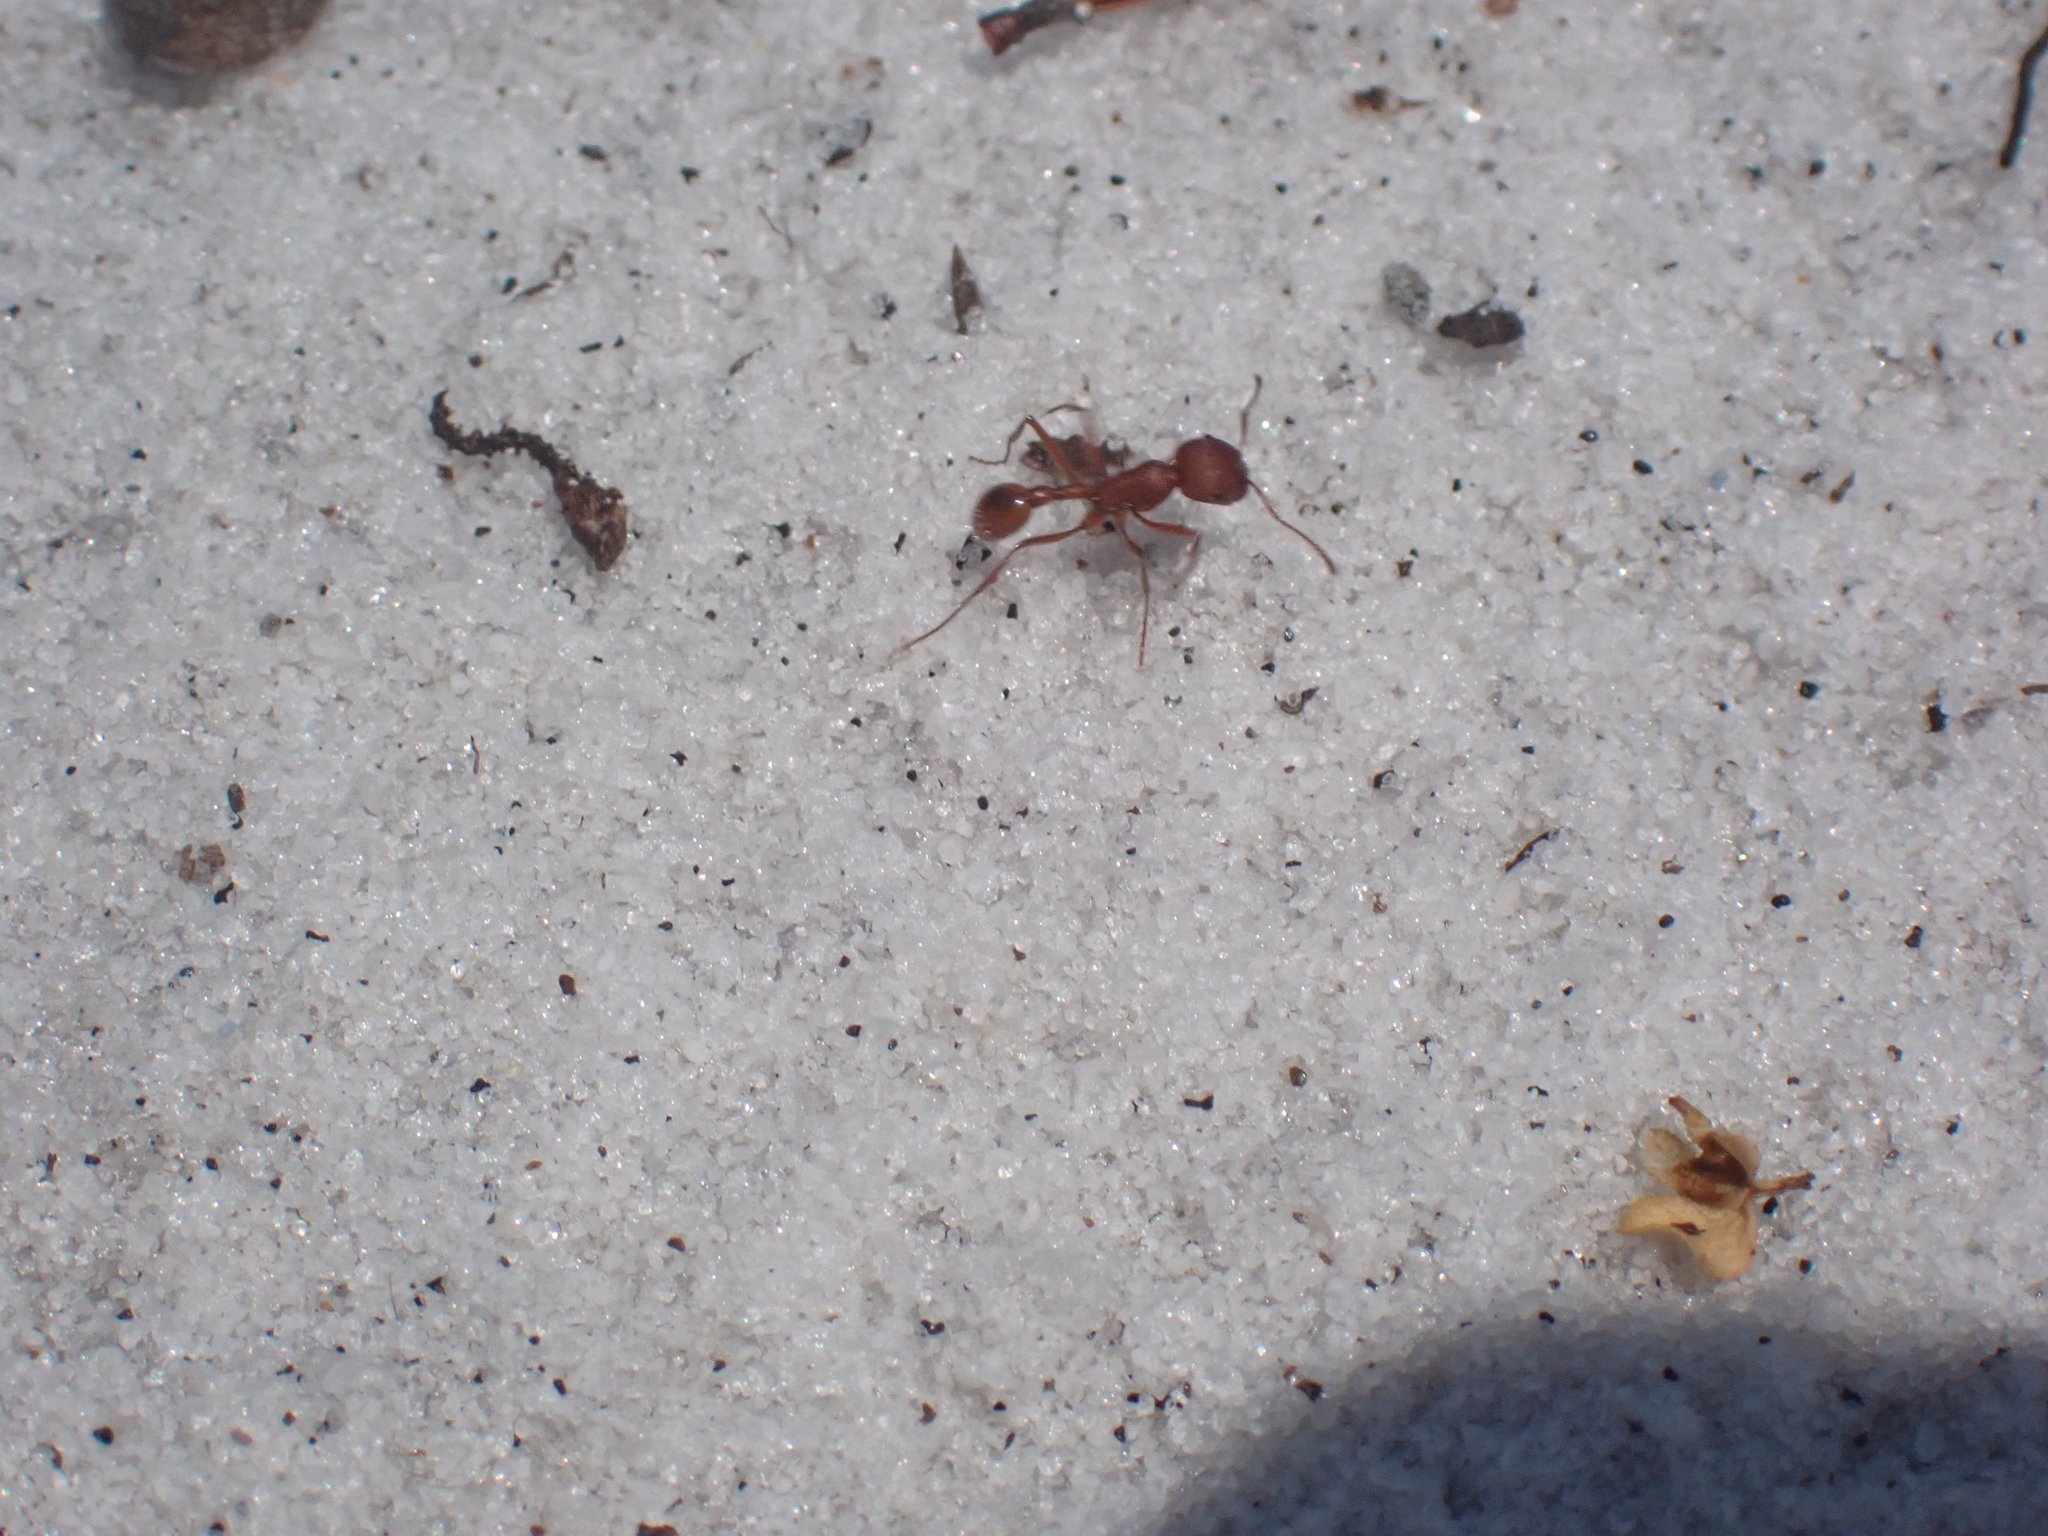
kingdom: Animalia
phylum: Arthropoda
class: Insecta
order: Hymenoptera
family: Formicidae
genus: Pogonomyrmex
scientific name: Pogonomyrmex badius
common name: Florida harvester ant
